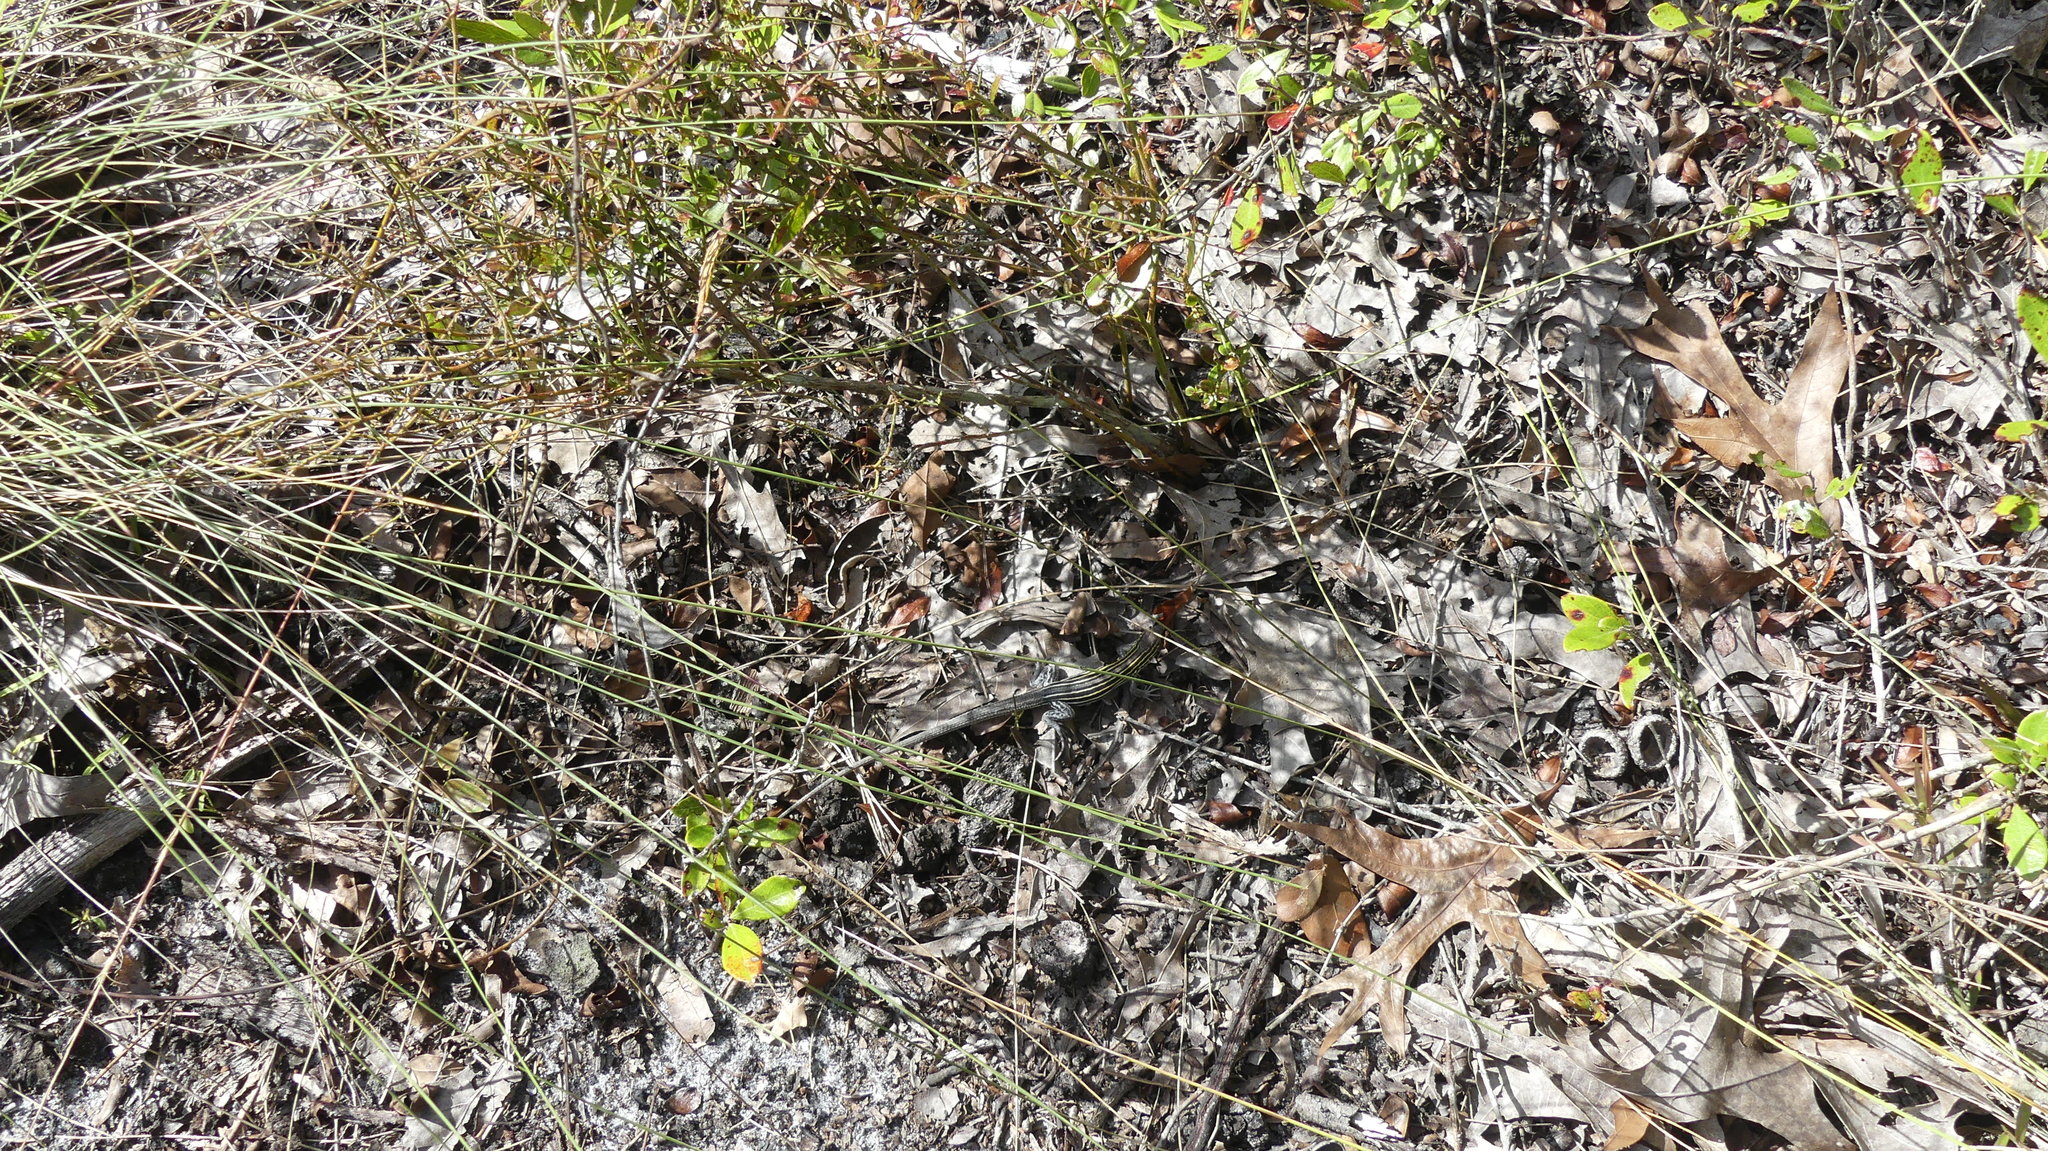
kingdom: Animalia
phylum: Chordata
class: Squamata
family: Teiidae
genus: Aspidoscelis
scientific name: Aspidoscelis sexlineatus
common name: Six-lined racerunner
